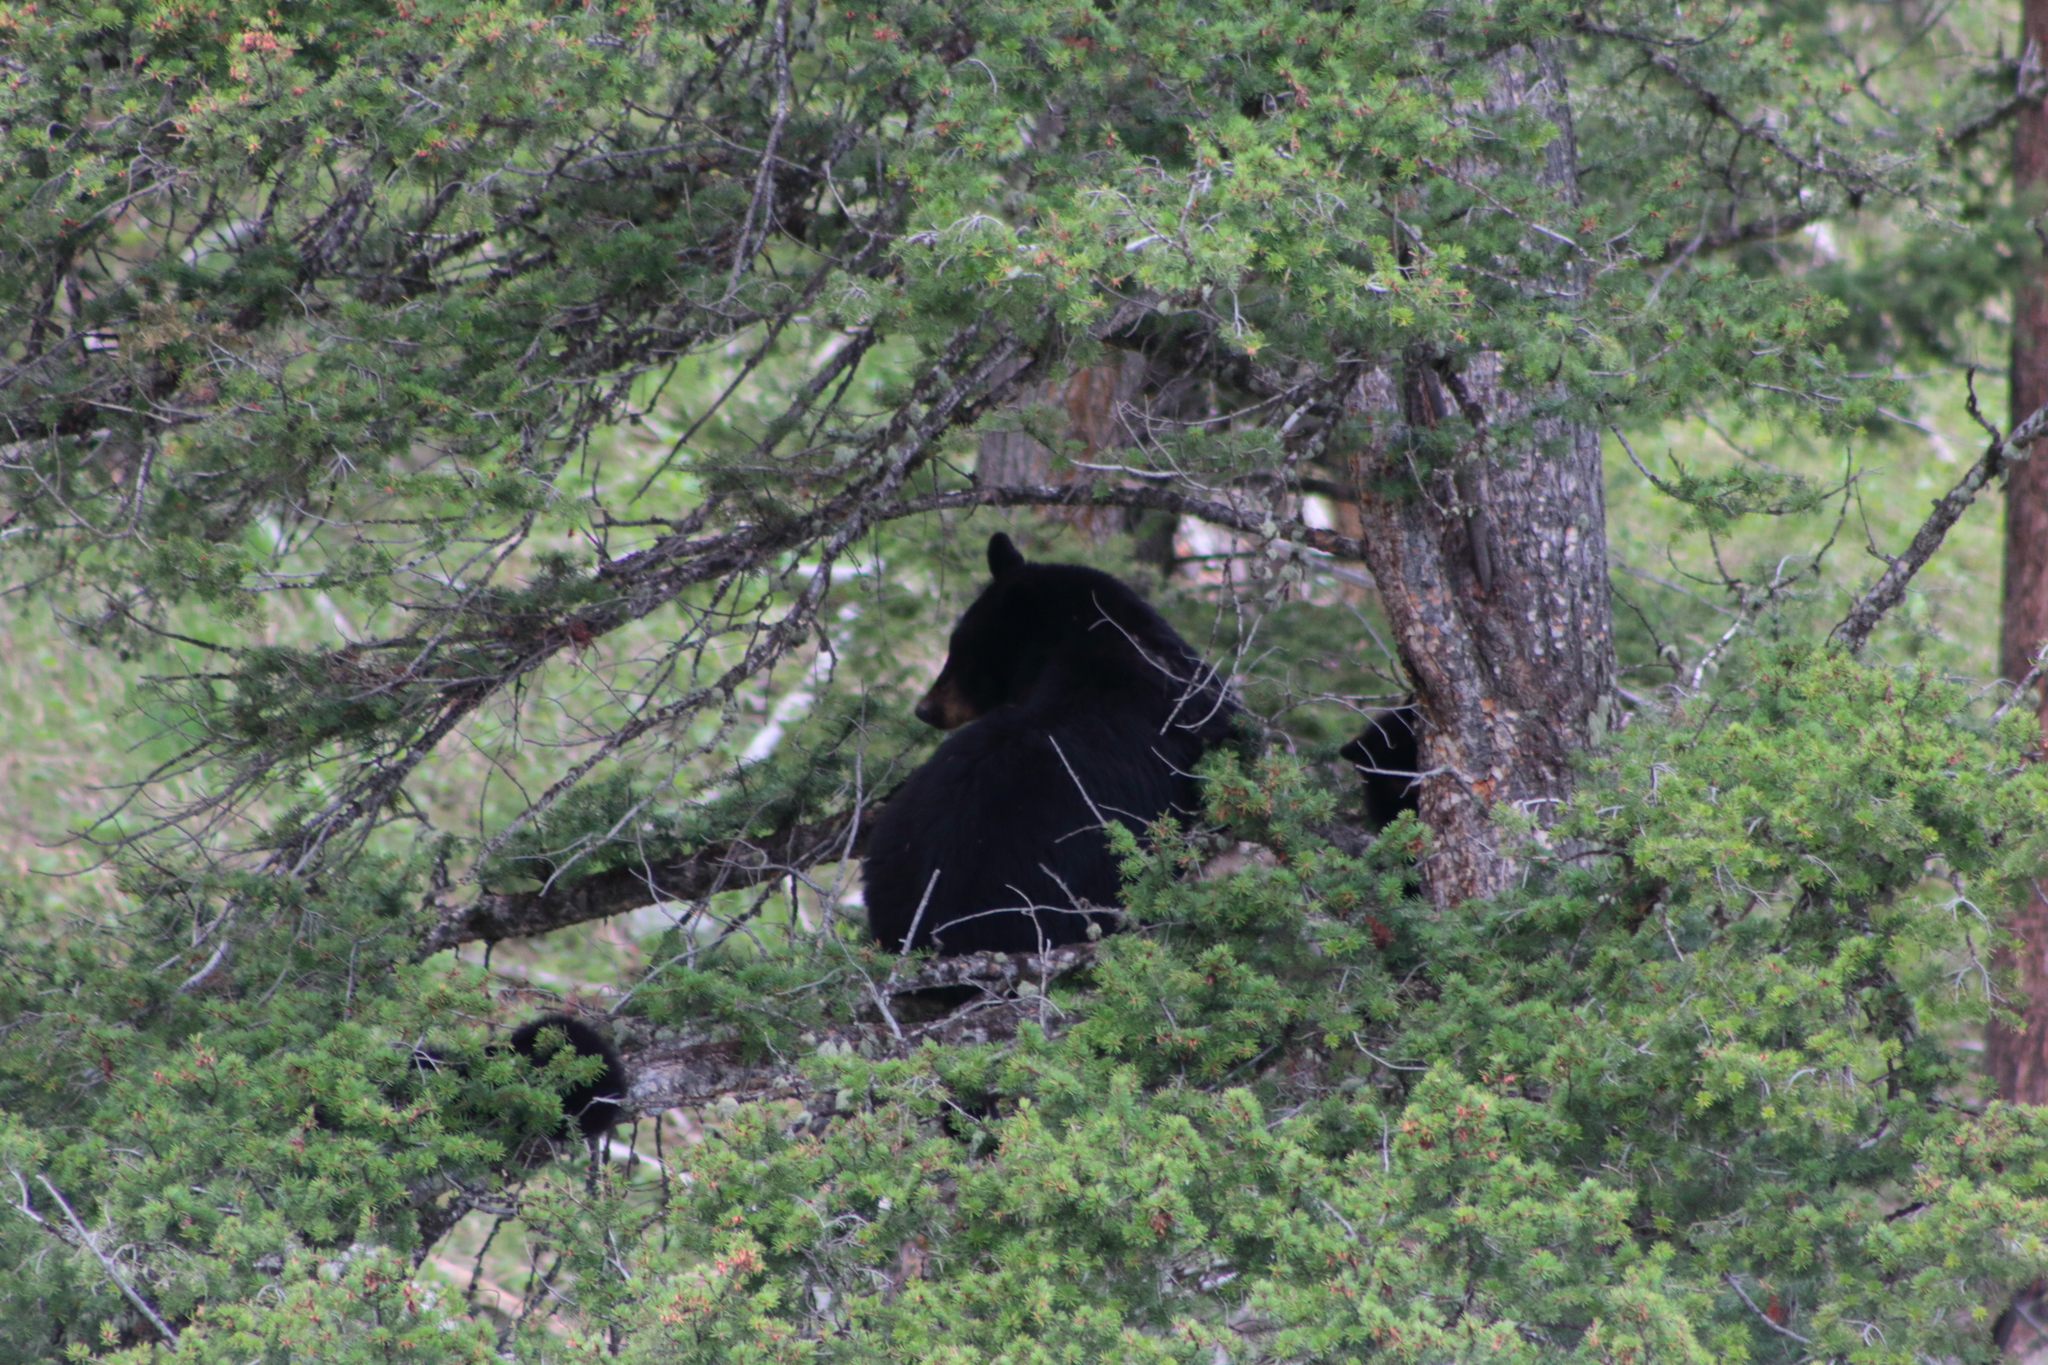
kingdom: Animalia
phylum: Chordata
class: Mammalia
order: Carnivora
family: Ursidae
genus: Ursus
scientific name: Ursus americanus
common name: American black bear
